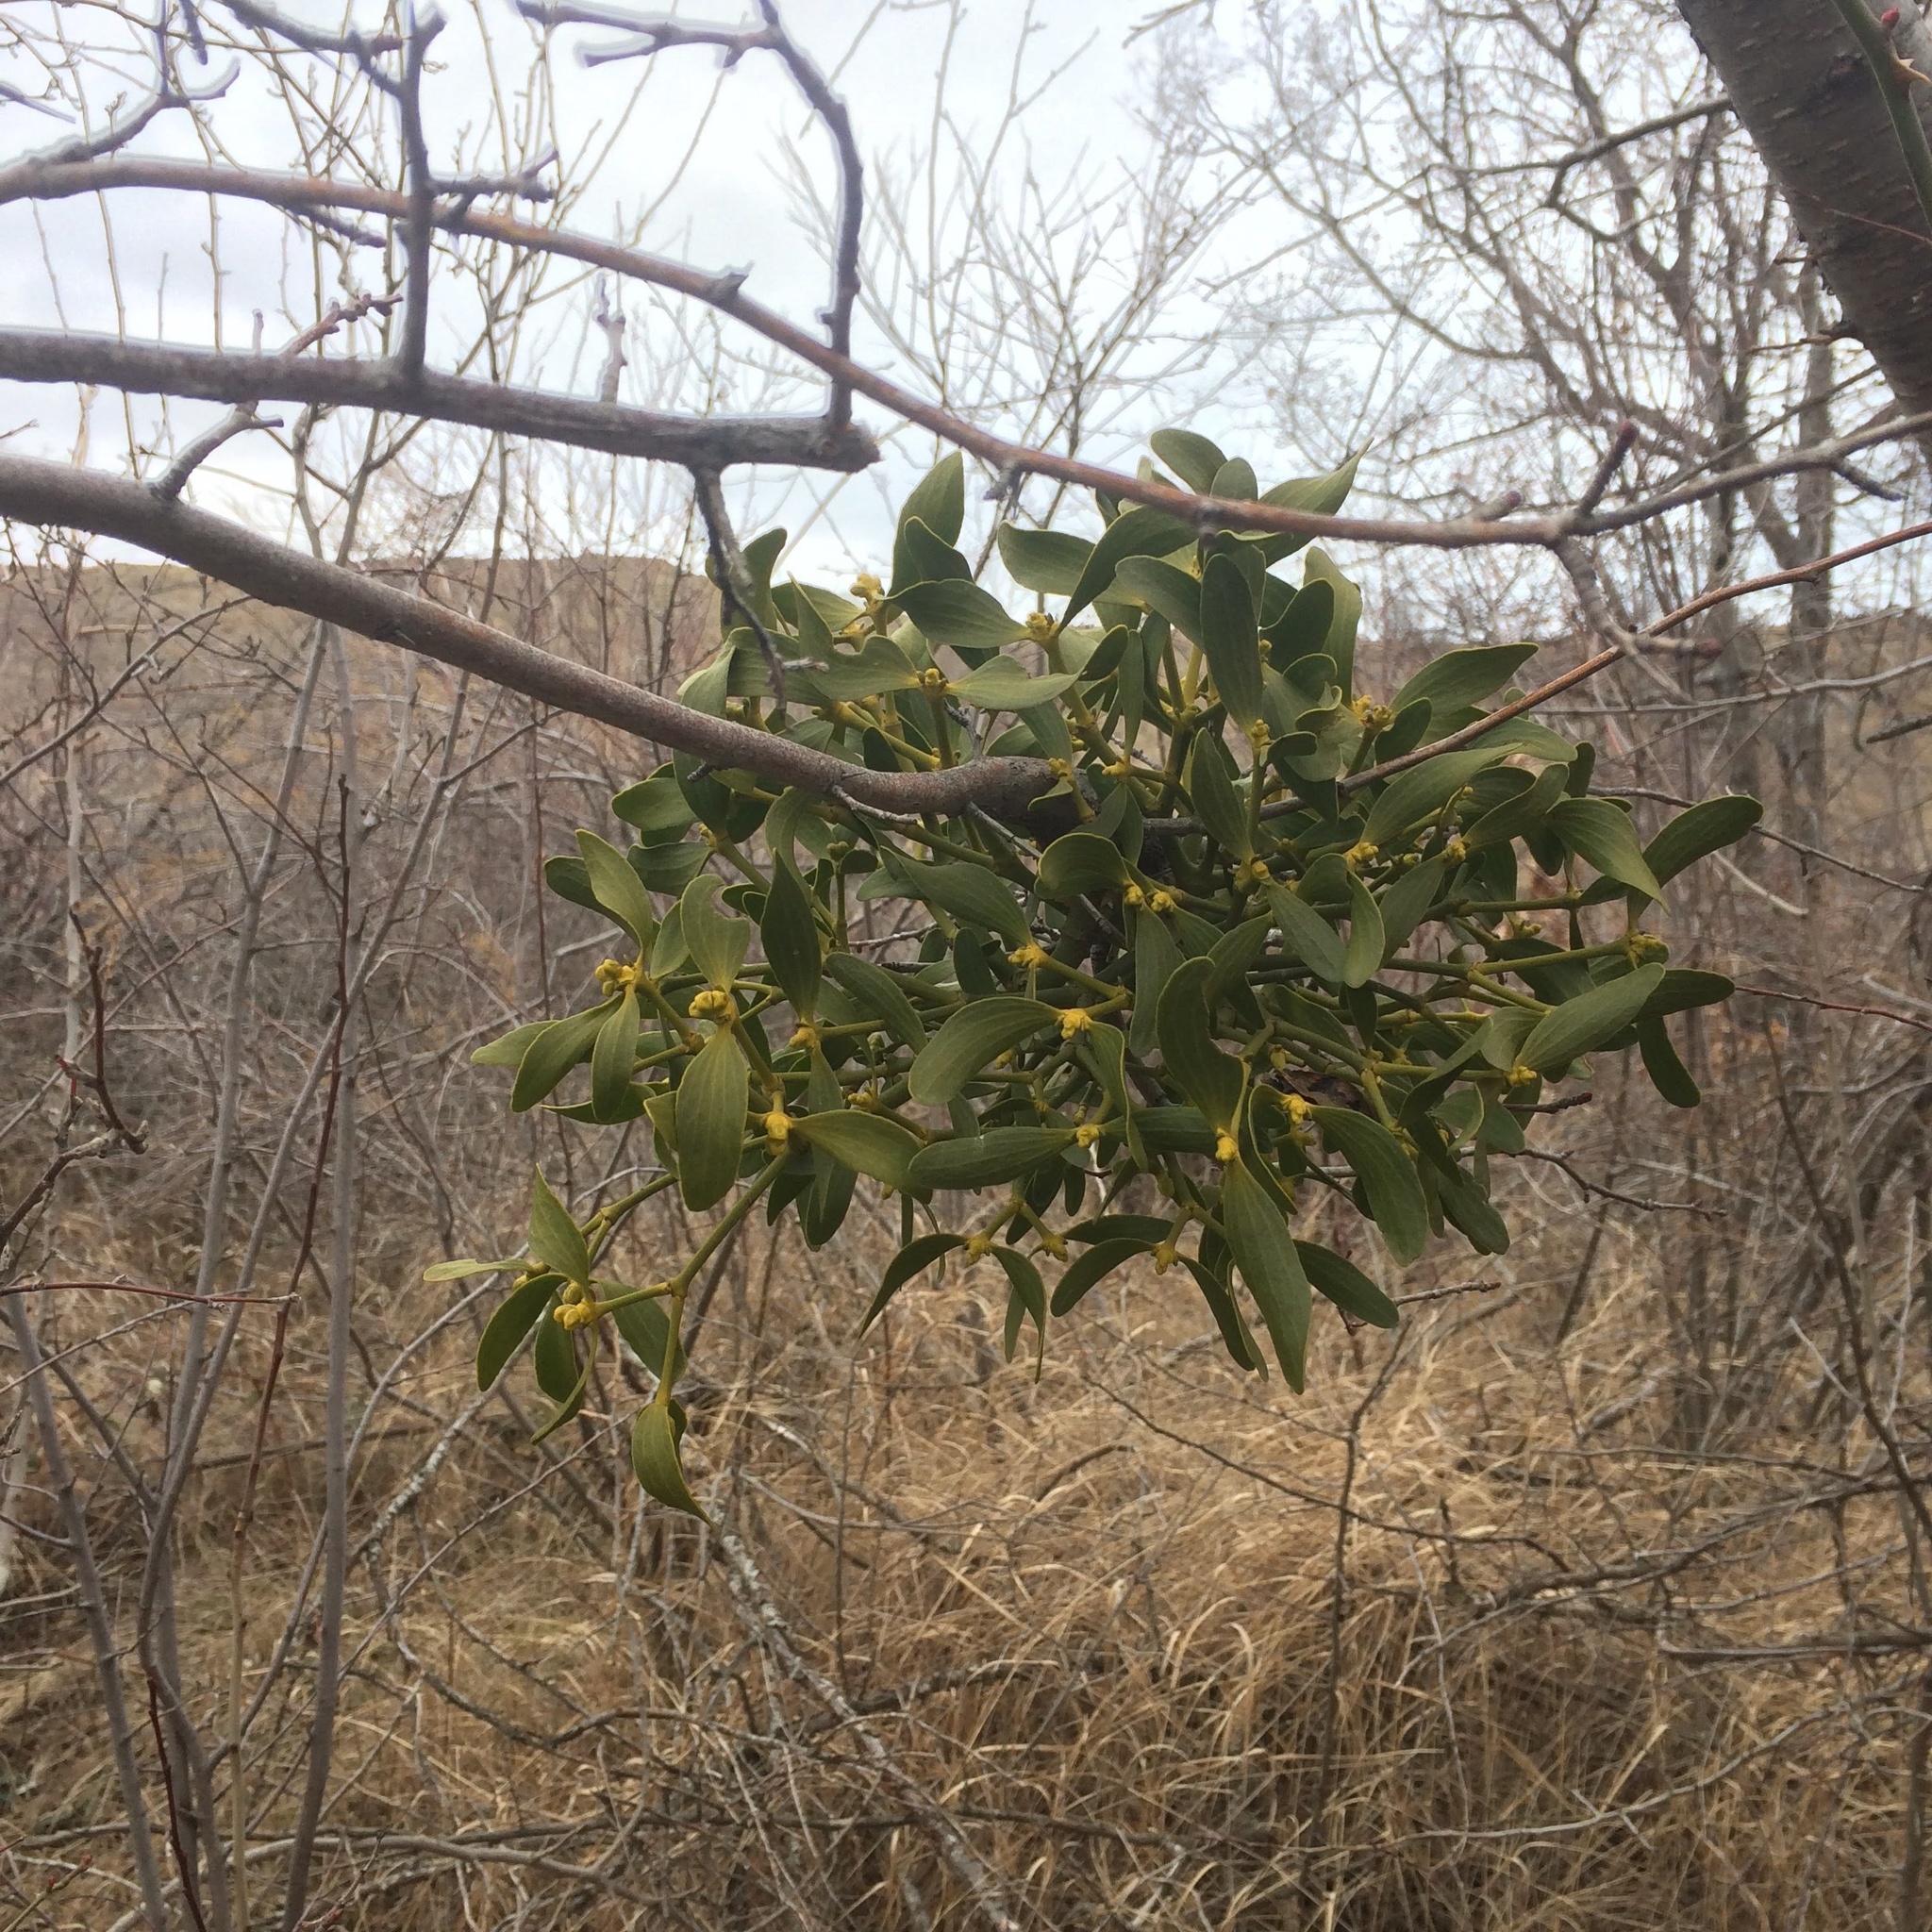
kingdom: Plantae
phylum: Tracheophyta
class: Magnoliopsida
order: Santalales
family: Viscaceae
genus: Viscum
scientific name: Viscum album
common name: Mistletoe
